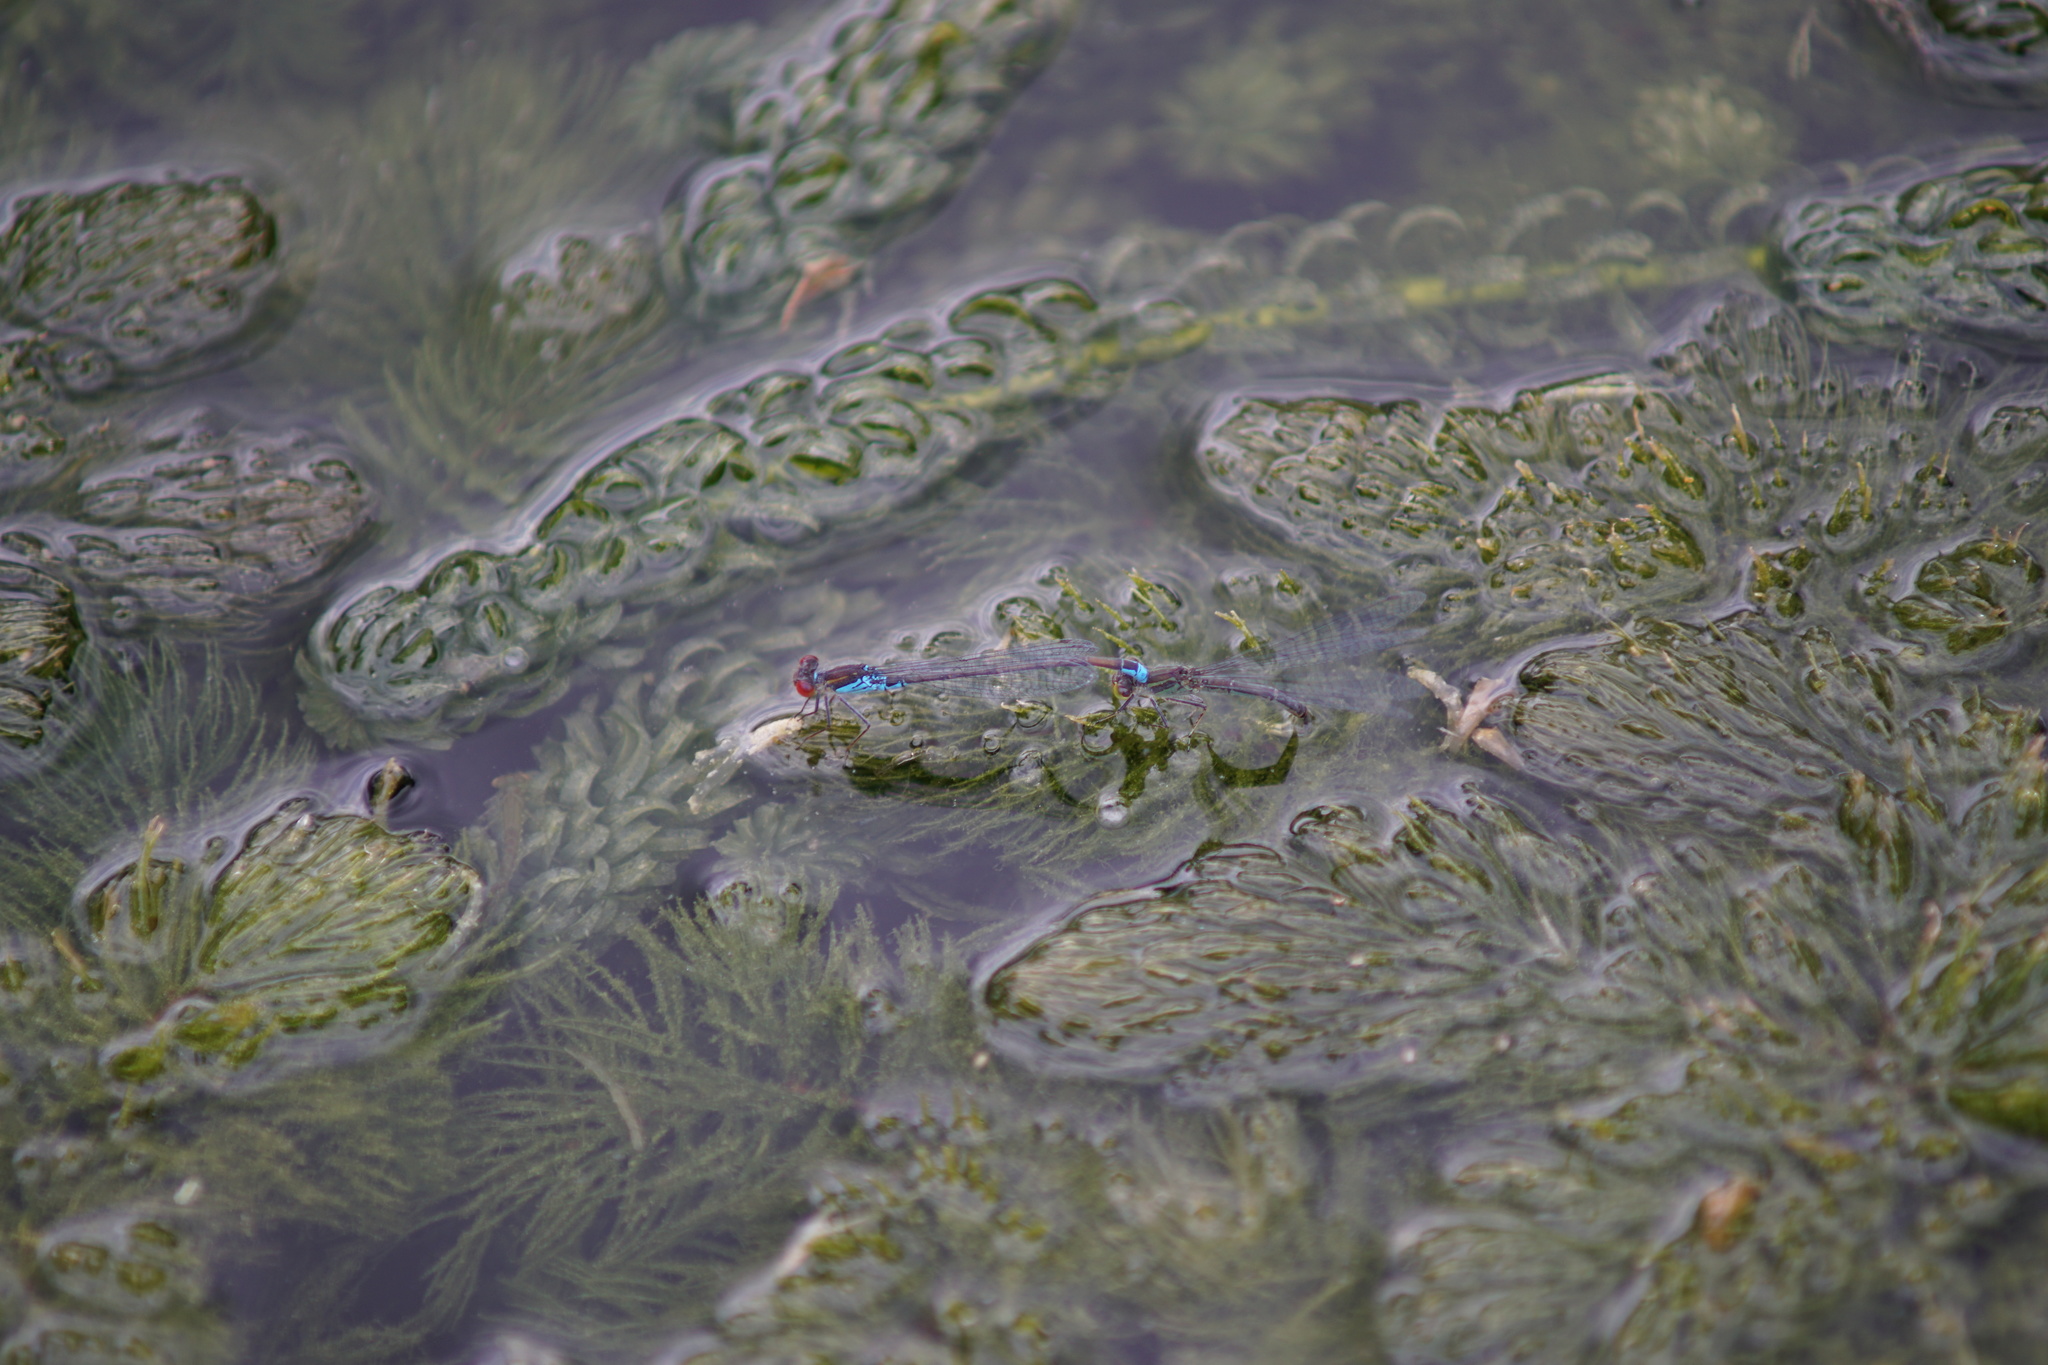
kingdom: Animalia
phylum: Arthropoda
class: Insecta
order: Odonata
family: Coenagrionidae
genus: Erythromma
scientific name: Erythromma viridulum
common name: Small red-eyed damselfly
